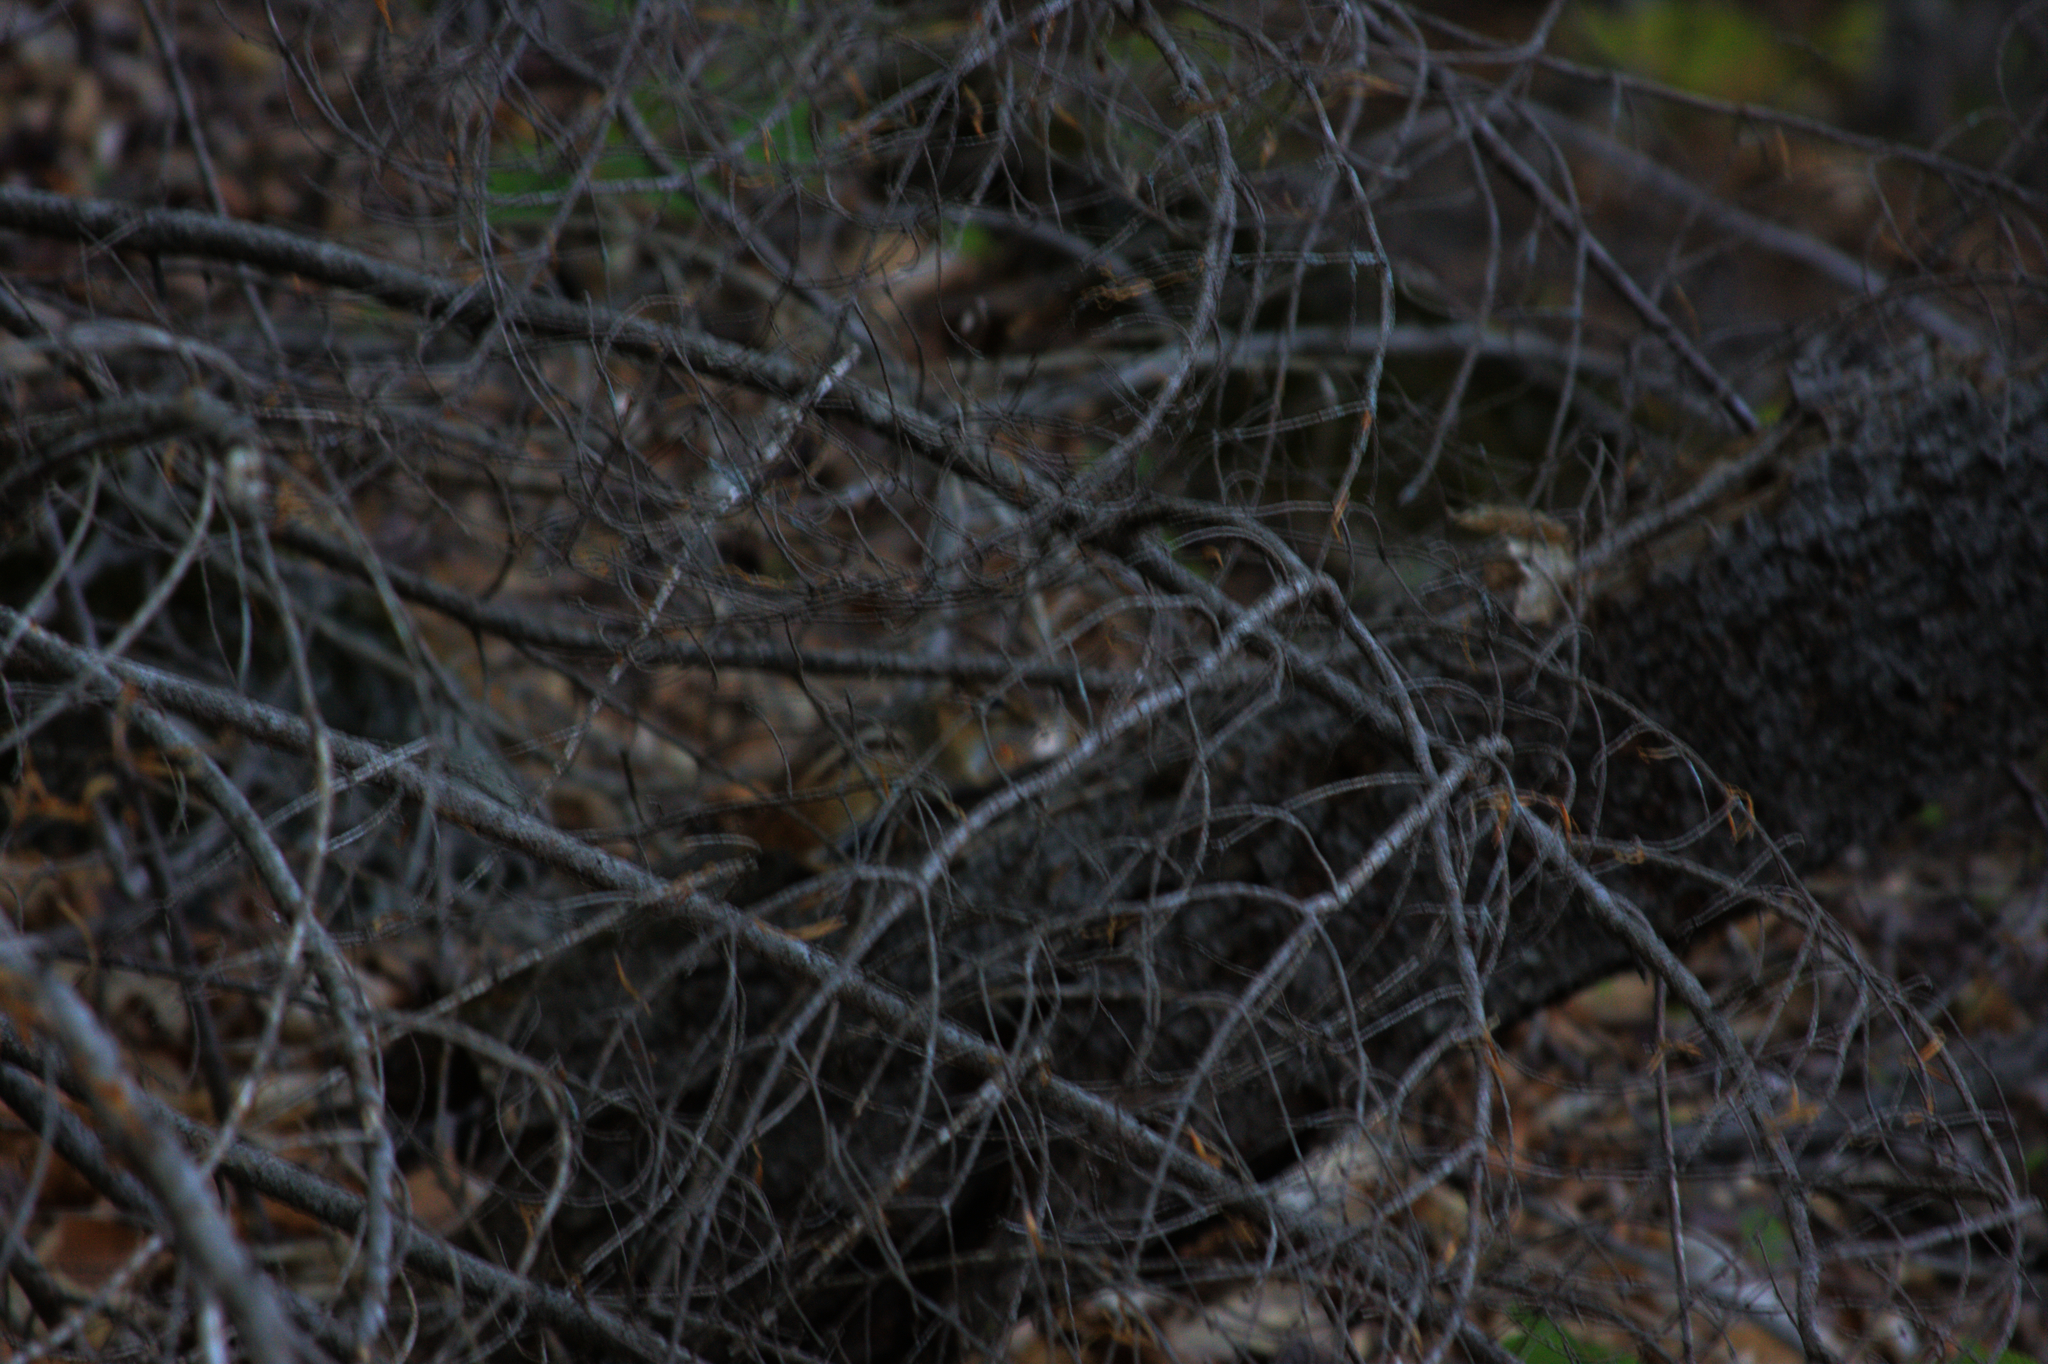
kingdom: Animalia
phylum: Chordata
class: Mammalia
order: Rodentia
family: Sciuridae
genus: Tamias
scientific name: Tamias striatus
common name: Eastern chipmunk
